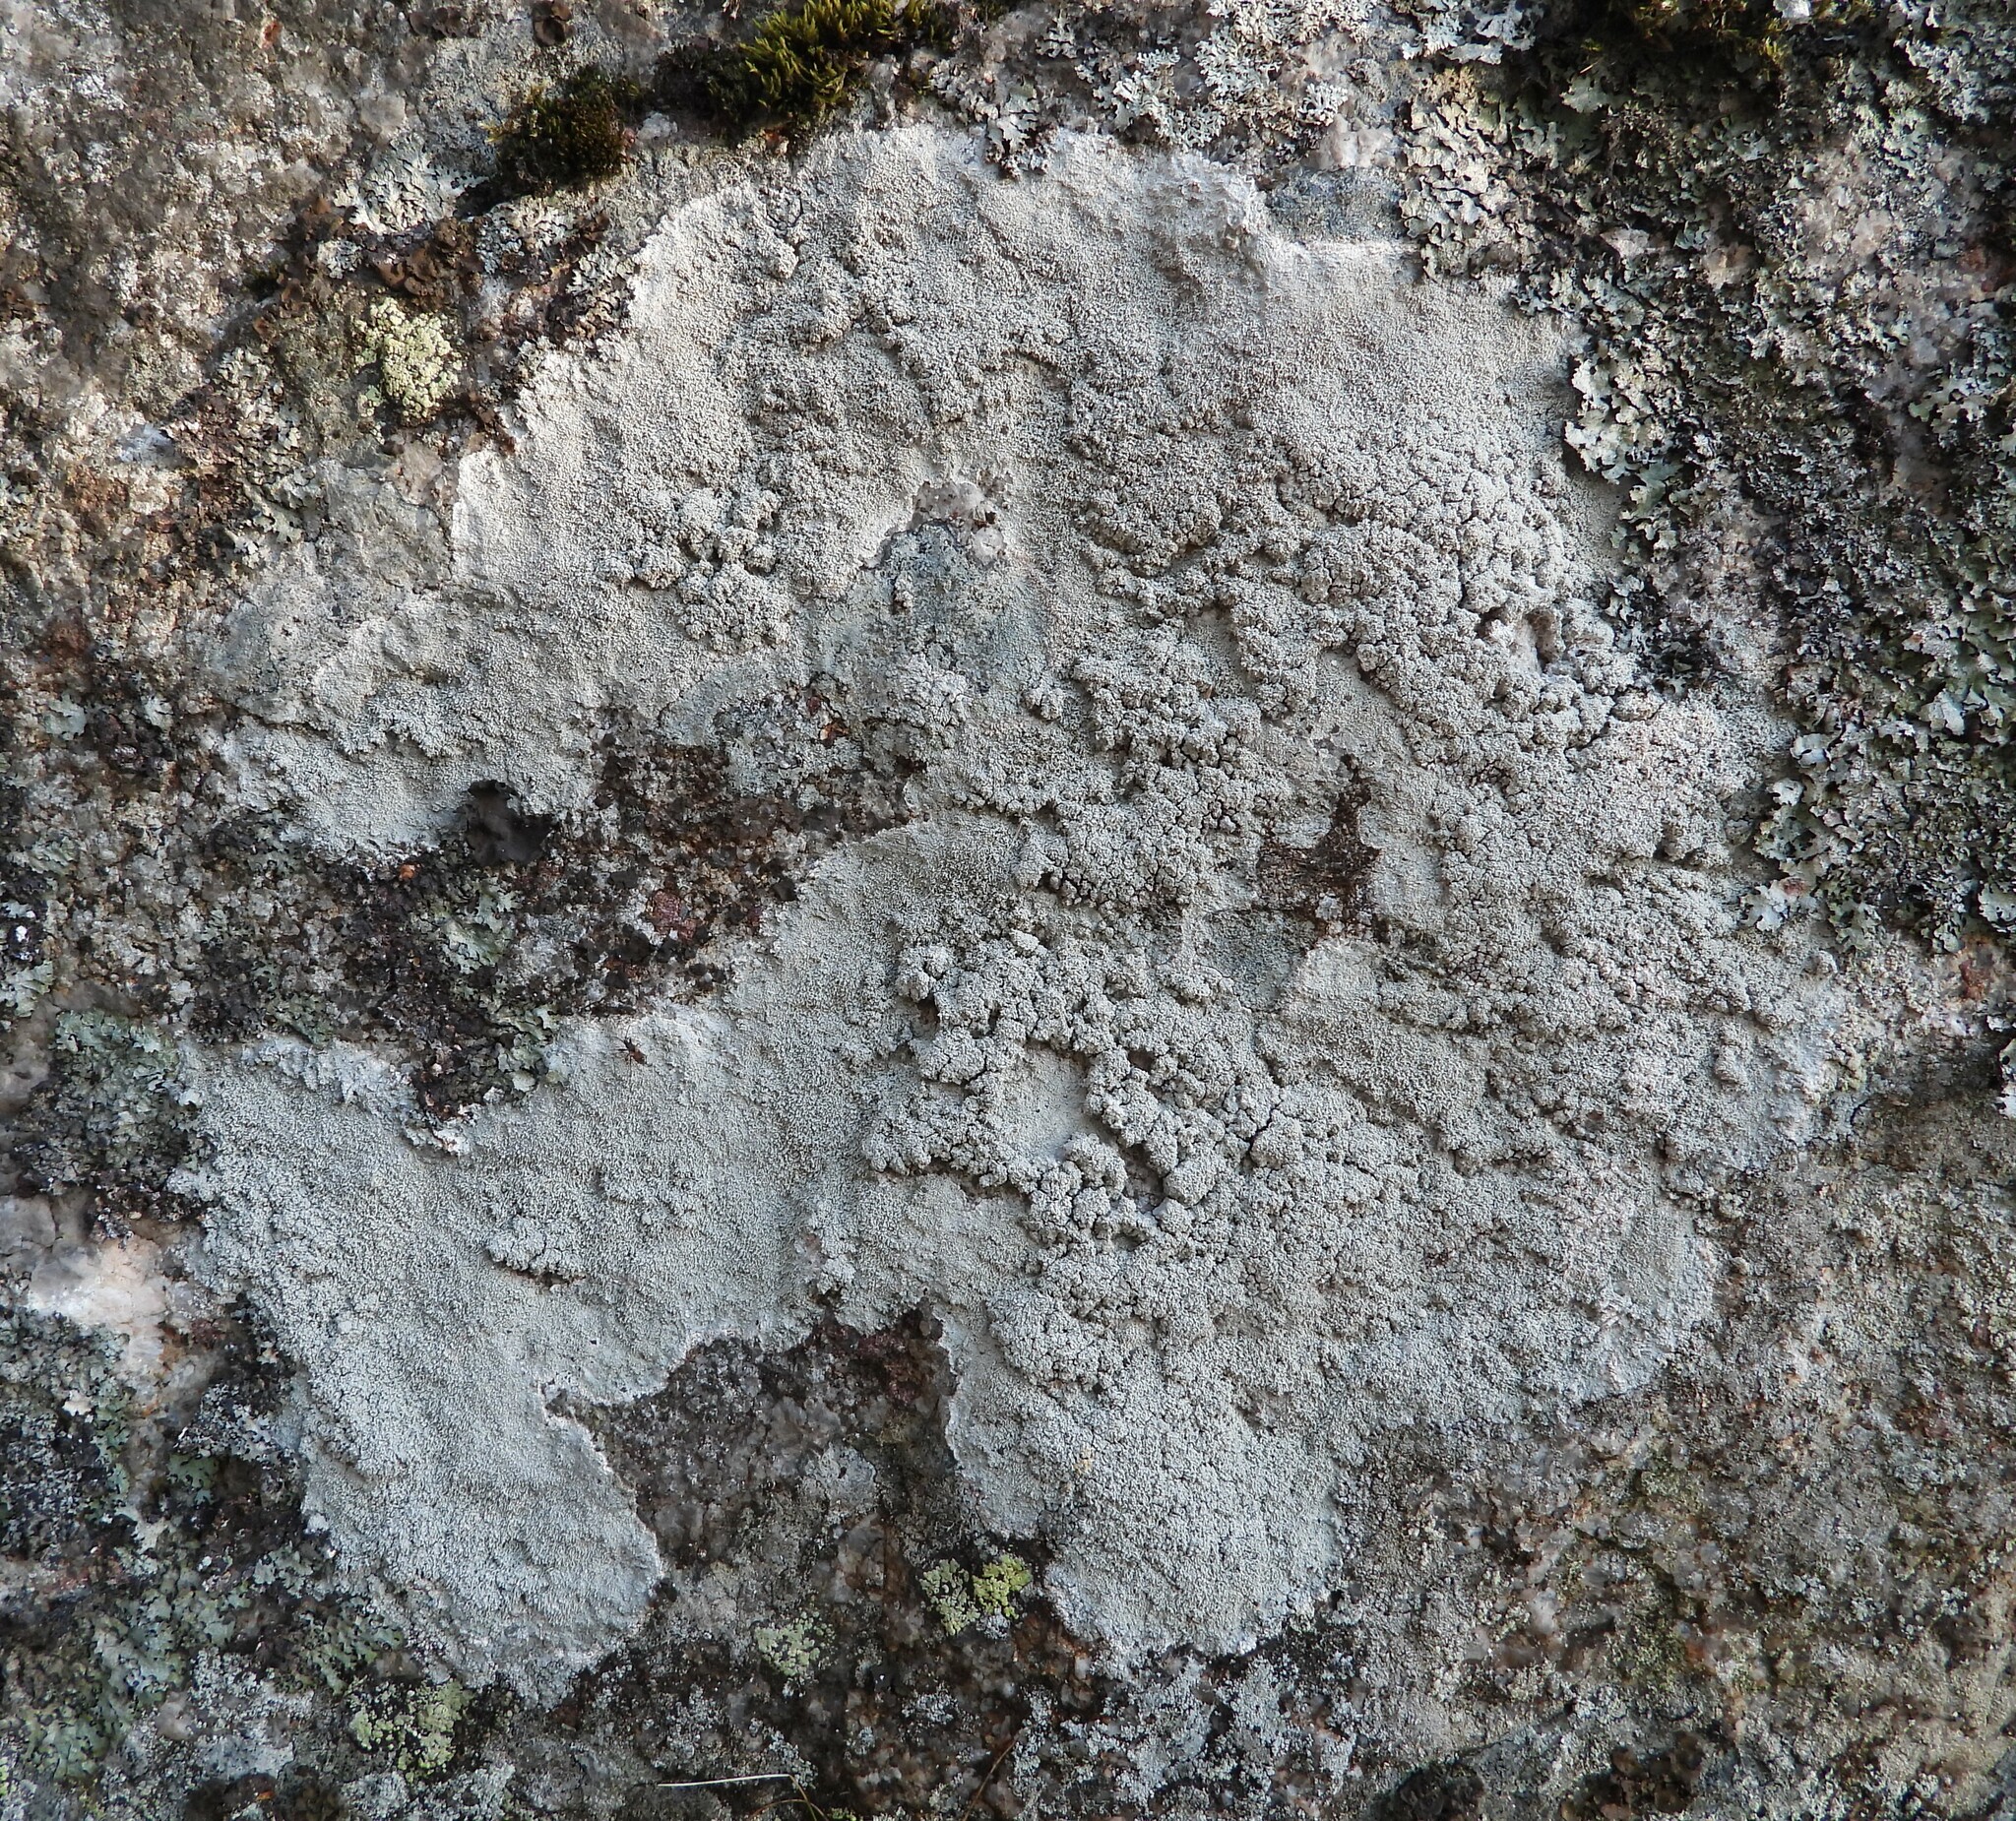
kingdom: Fungi
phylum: Ascomycota
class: Lecanoromycetes
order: Pertusariales
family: Pertusariaceae
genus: Lepra
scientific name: Lepra corallina
